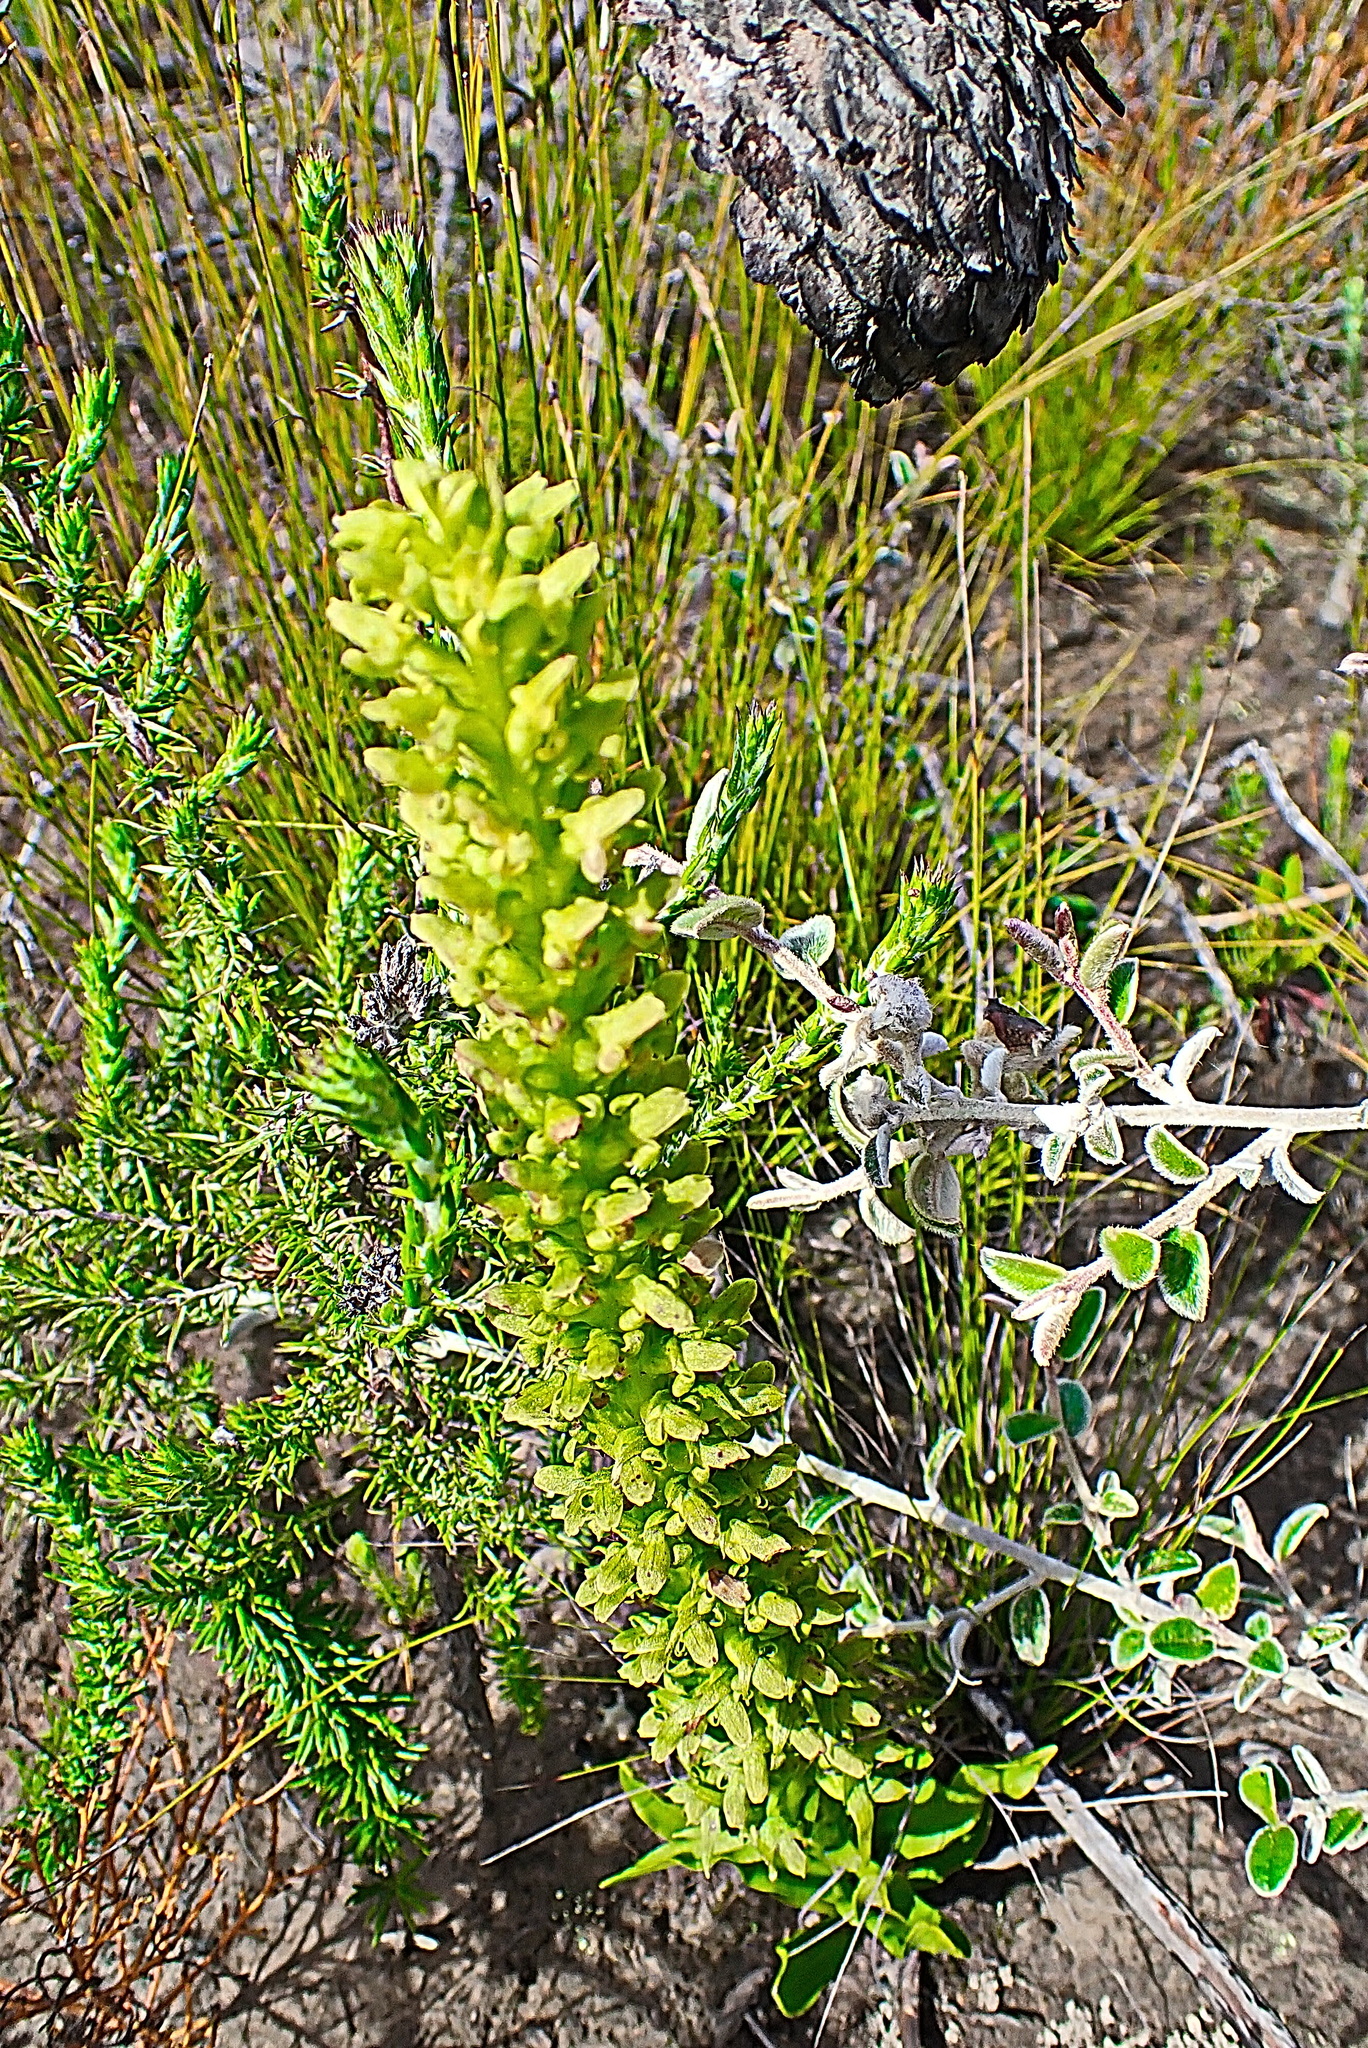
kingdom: Plantae
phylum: Tracheophyta
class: Liliopsida
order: Asparagales
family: Orchidaceae
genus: Disa
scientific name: Disa cylindrica
